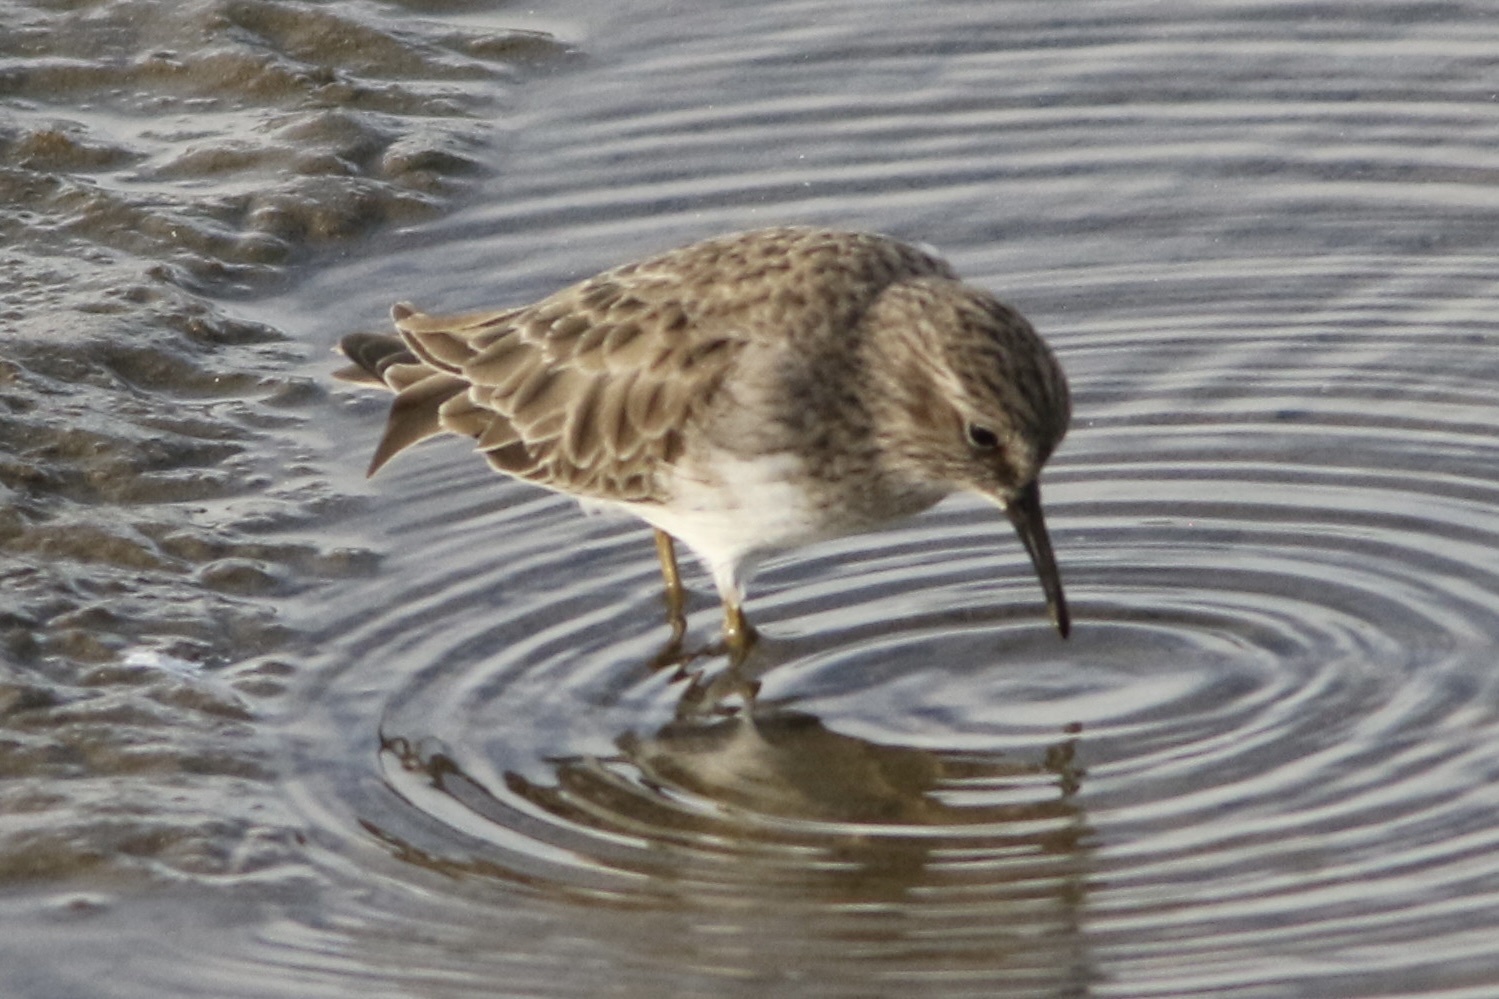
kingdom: Animalia
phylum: Chordata
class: Aves
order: Charadriiformes
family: Scolopacidae
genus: Calidris
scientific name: Calidris minutilla
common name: Least sandpiper
